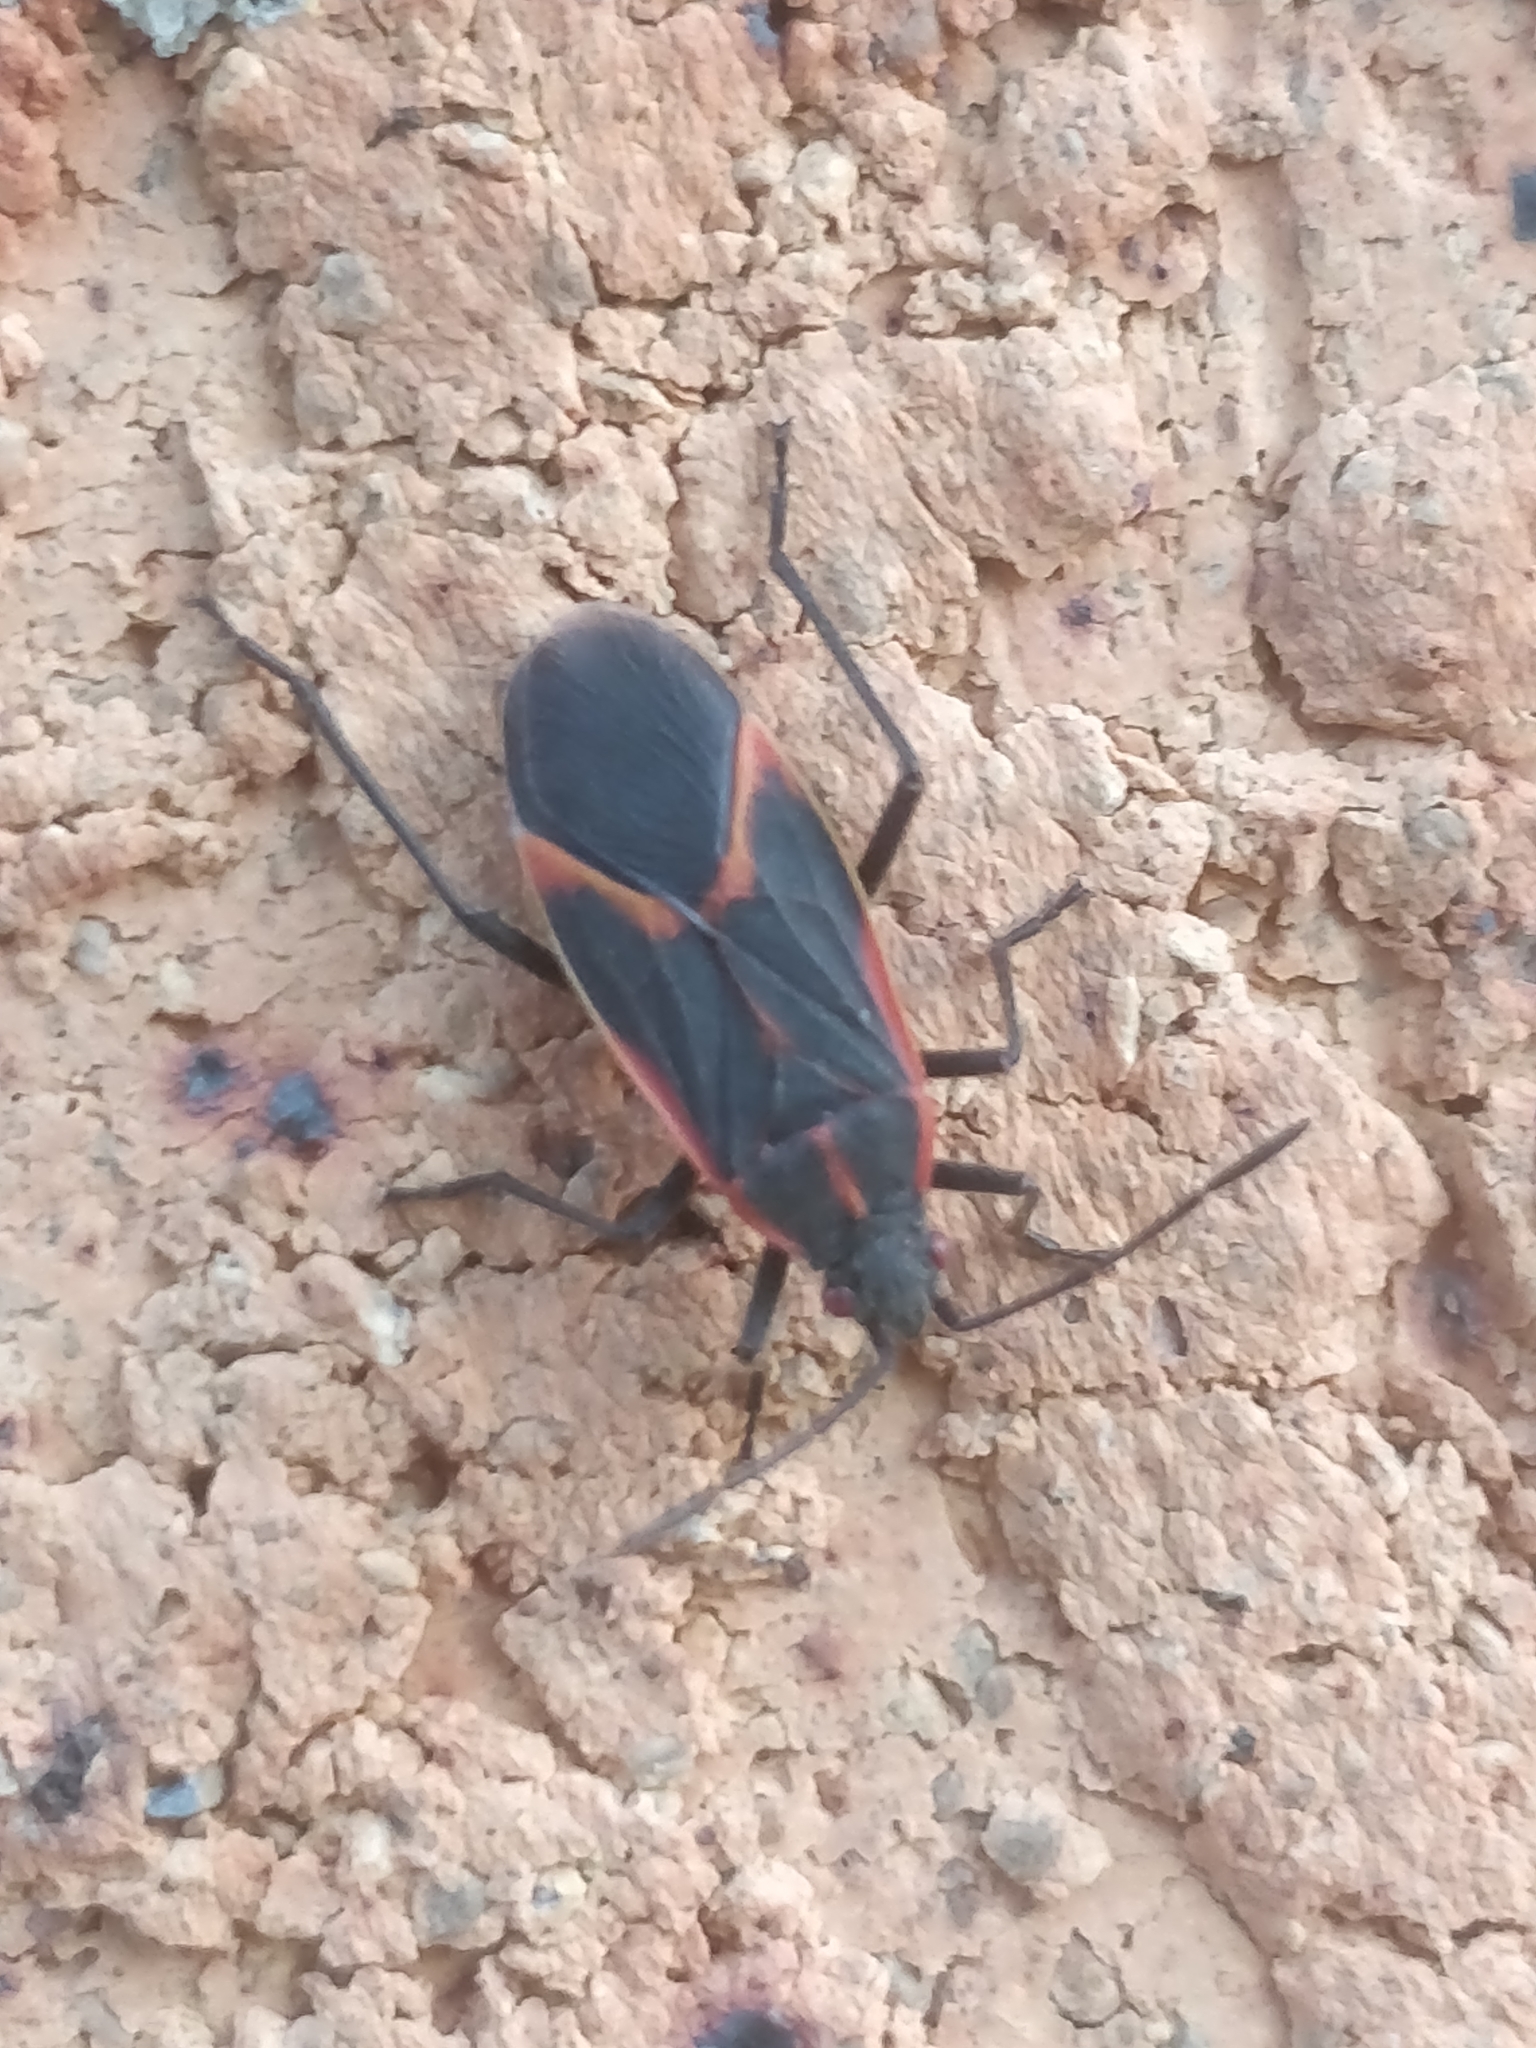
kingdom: Animalia
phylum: Arthropoda
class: Insecta
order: Hemiptera
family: Rhopalidae
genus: Boisea
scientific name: Boisea trivittata
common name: Boxelder bug
